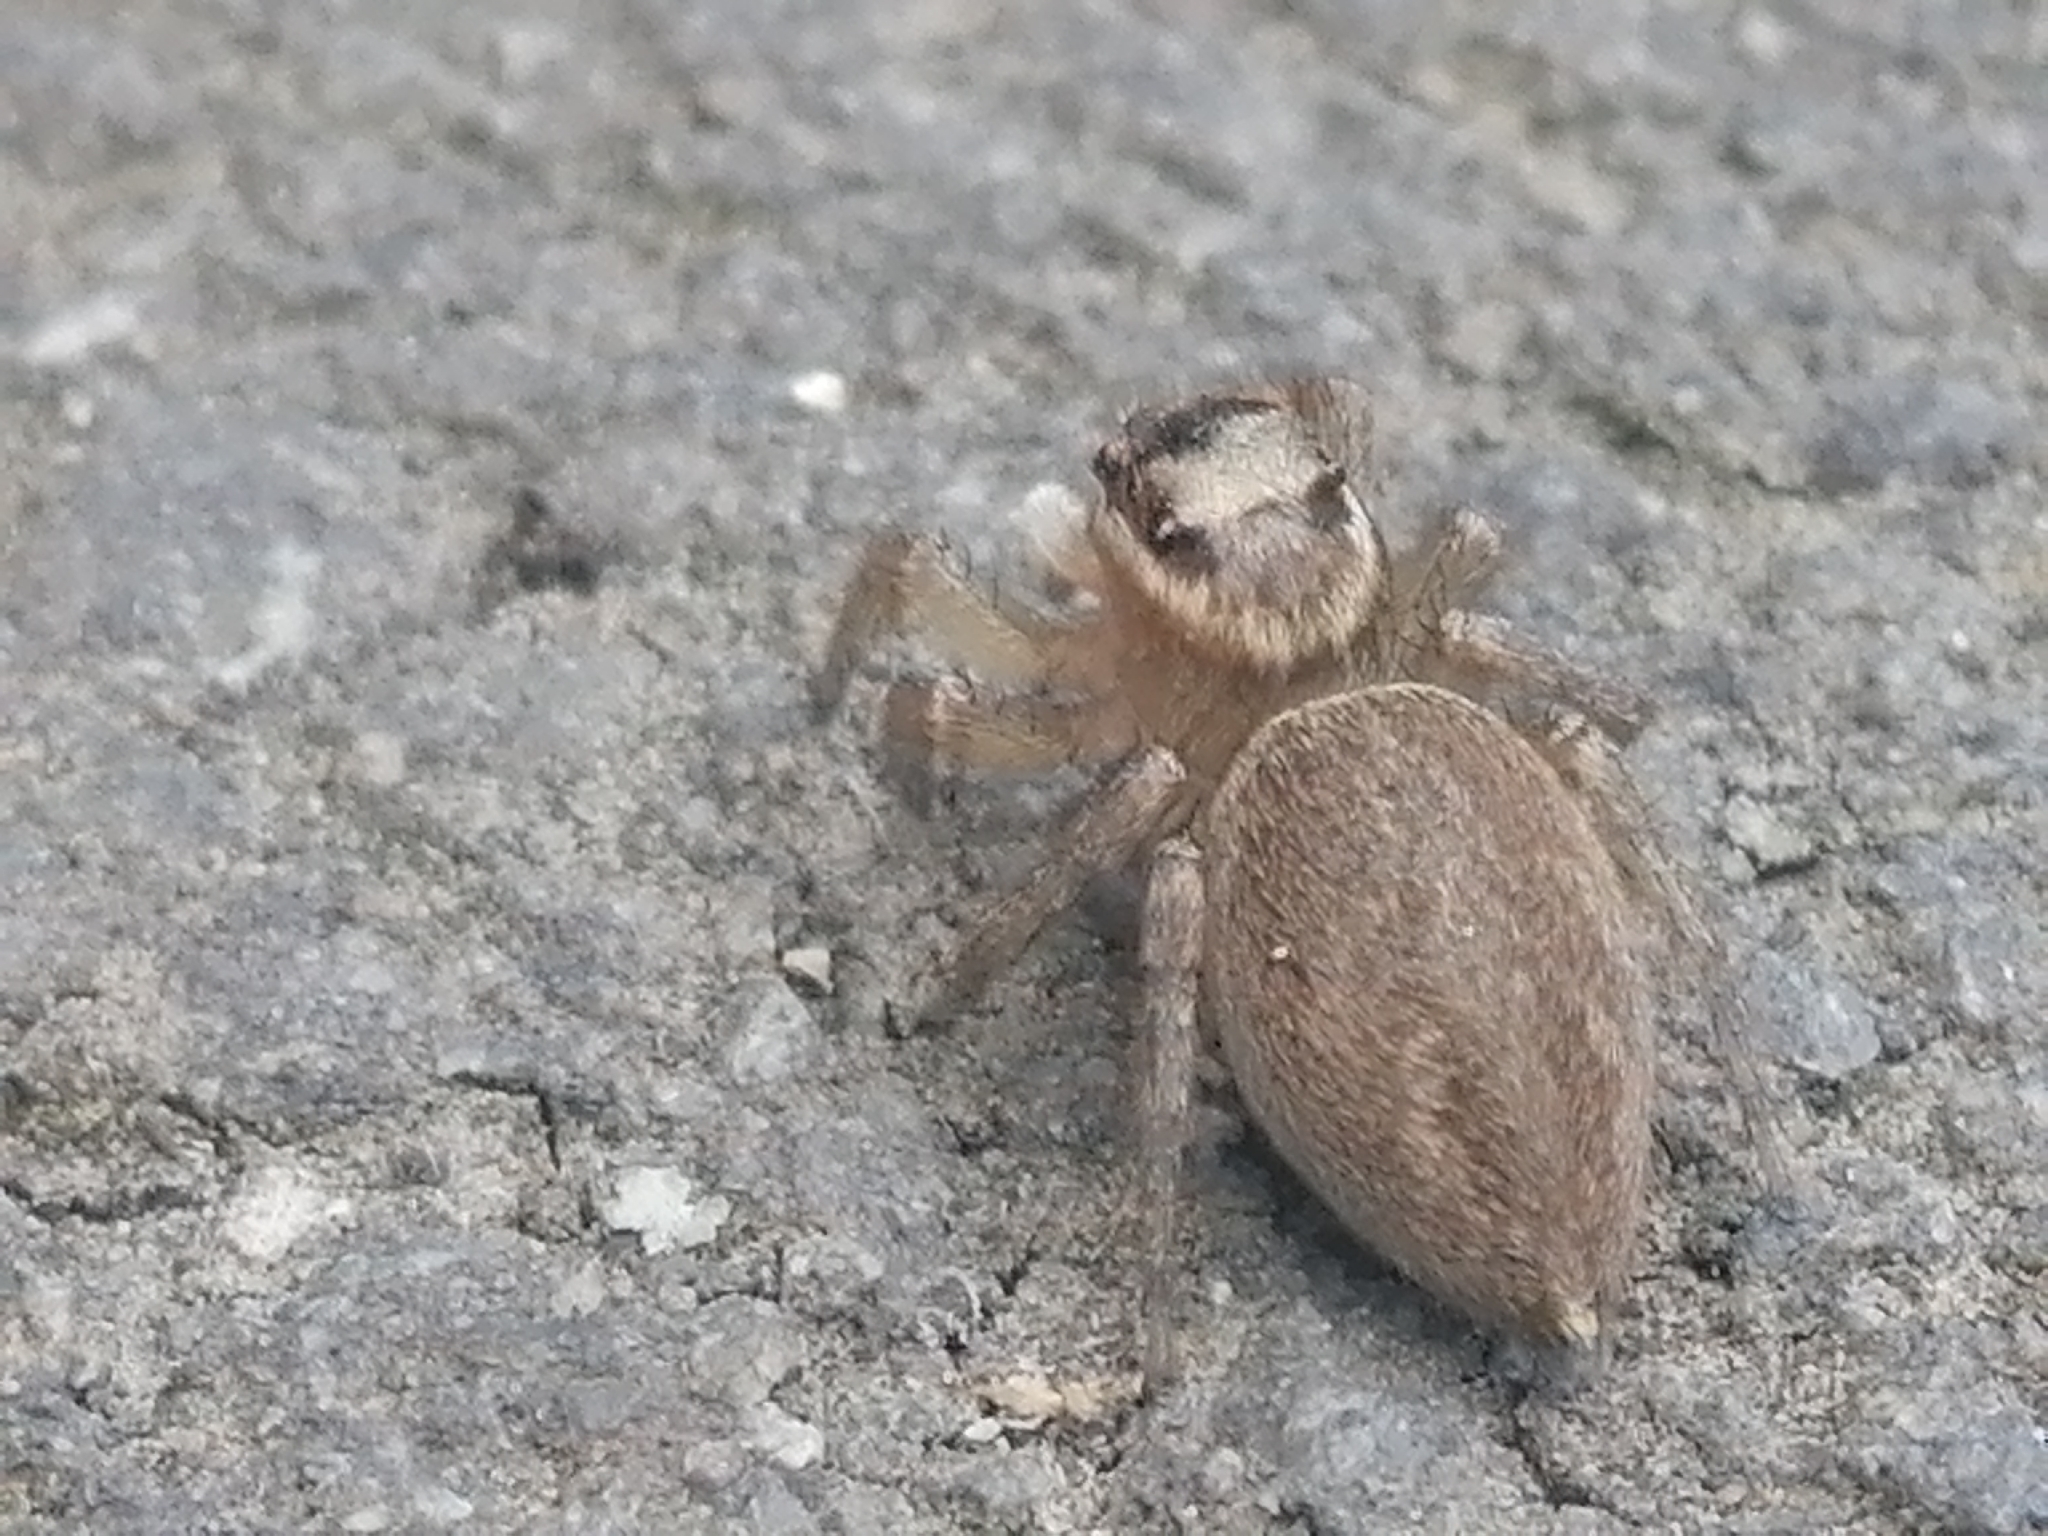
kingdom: Animalia
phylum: Arthropoda
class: Arachnida
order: Araneae
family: Salticidae
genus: Maratus
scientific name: Maratus griseus
